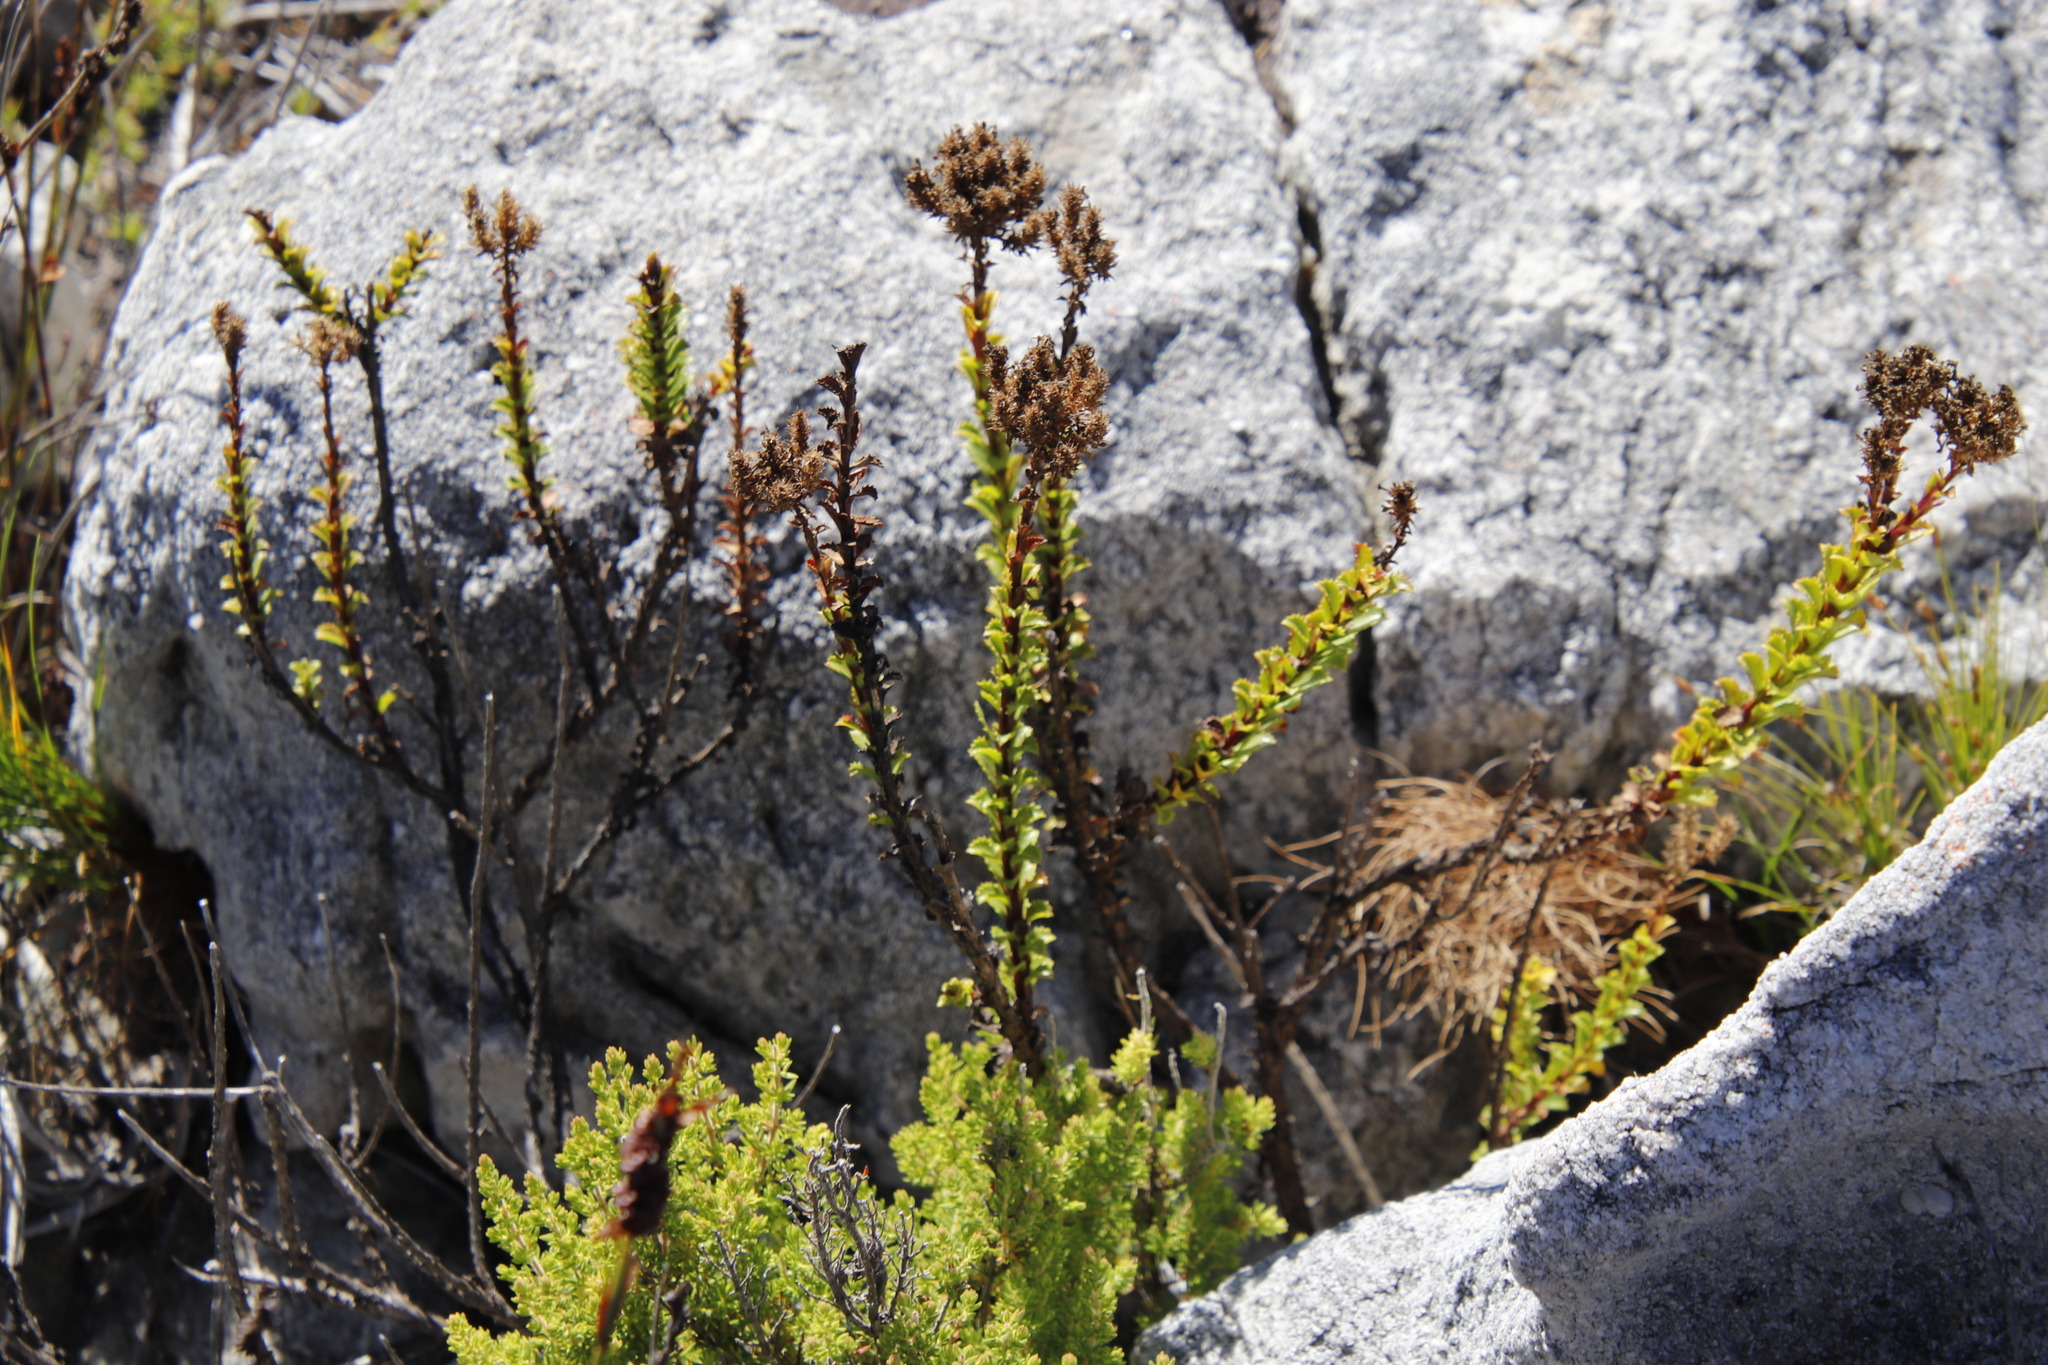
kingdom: Plantae
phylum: Tracheophyta
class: Magnoliopsida
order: Lamiales
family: Scrophulariaceae
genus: Pseudoselago
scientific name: Pseudoselago serrata
